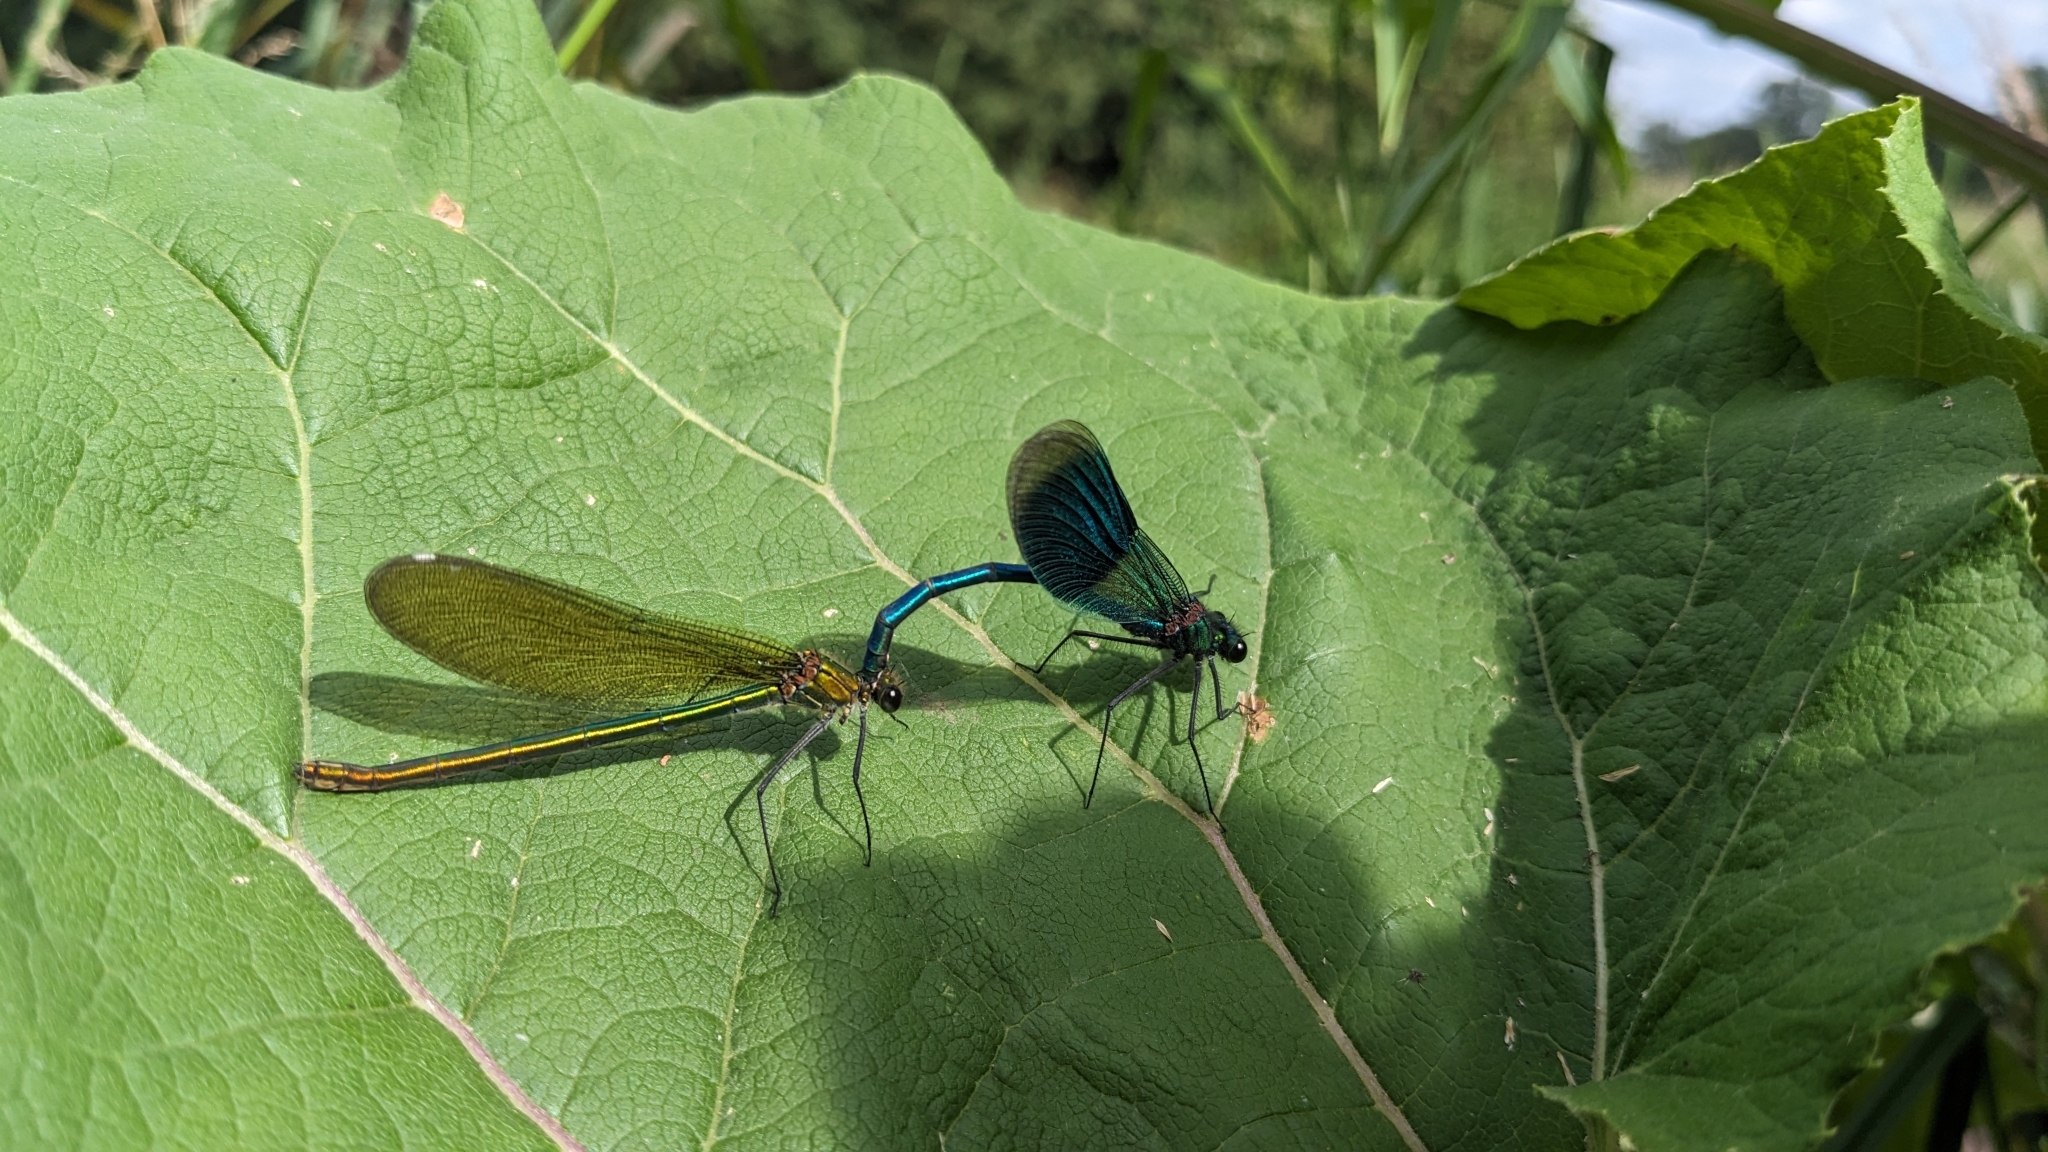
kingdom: Animalia
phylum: Arthropoda
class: Insecta
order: Odonata
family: Calopterygidae
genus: Calopteryx
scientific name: Calopteryx splendens
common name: Banded demoiselle
